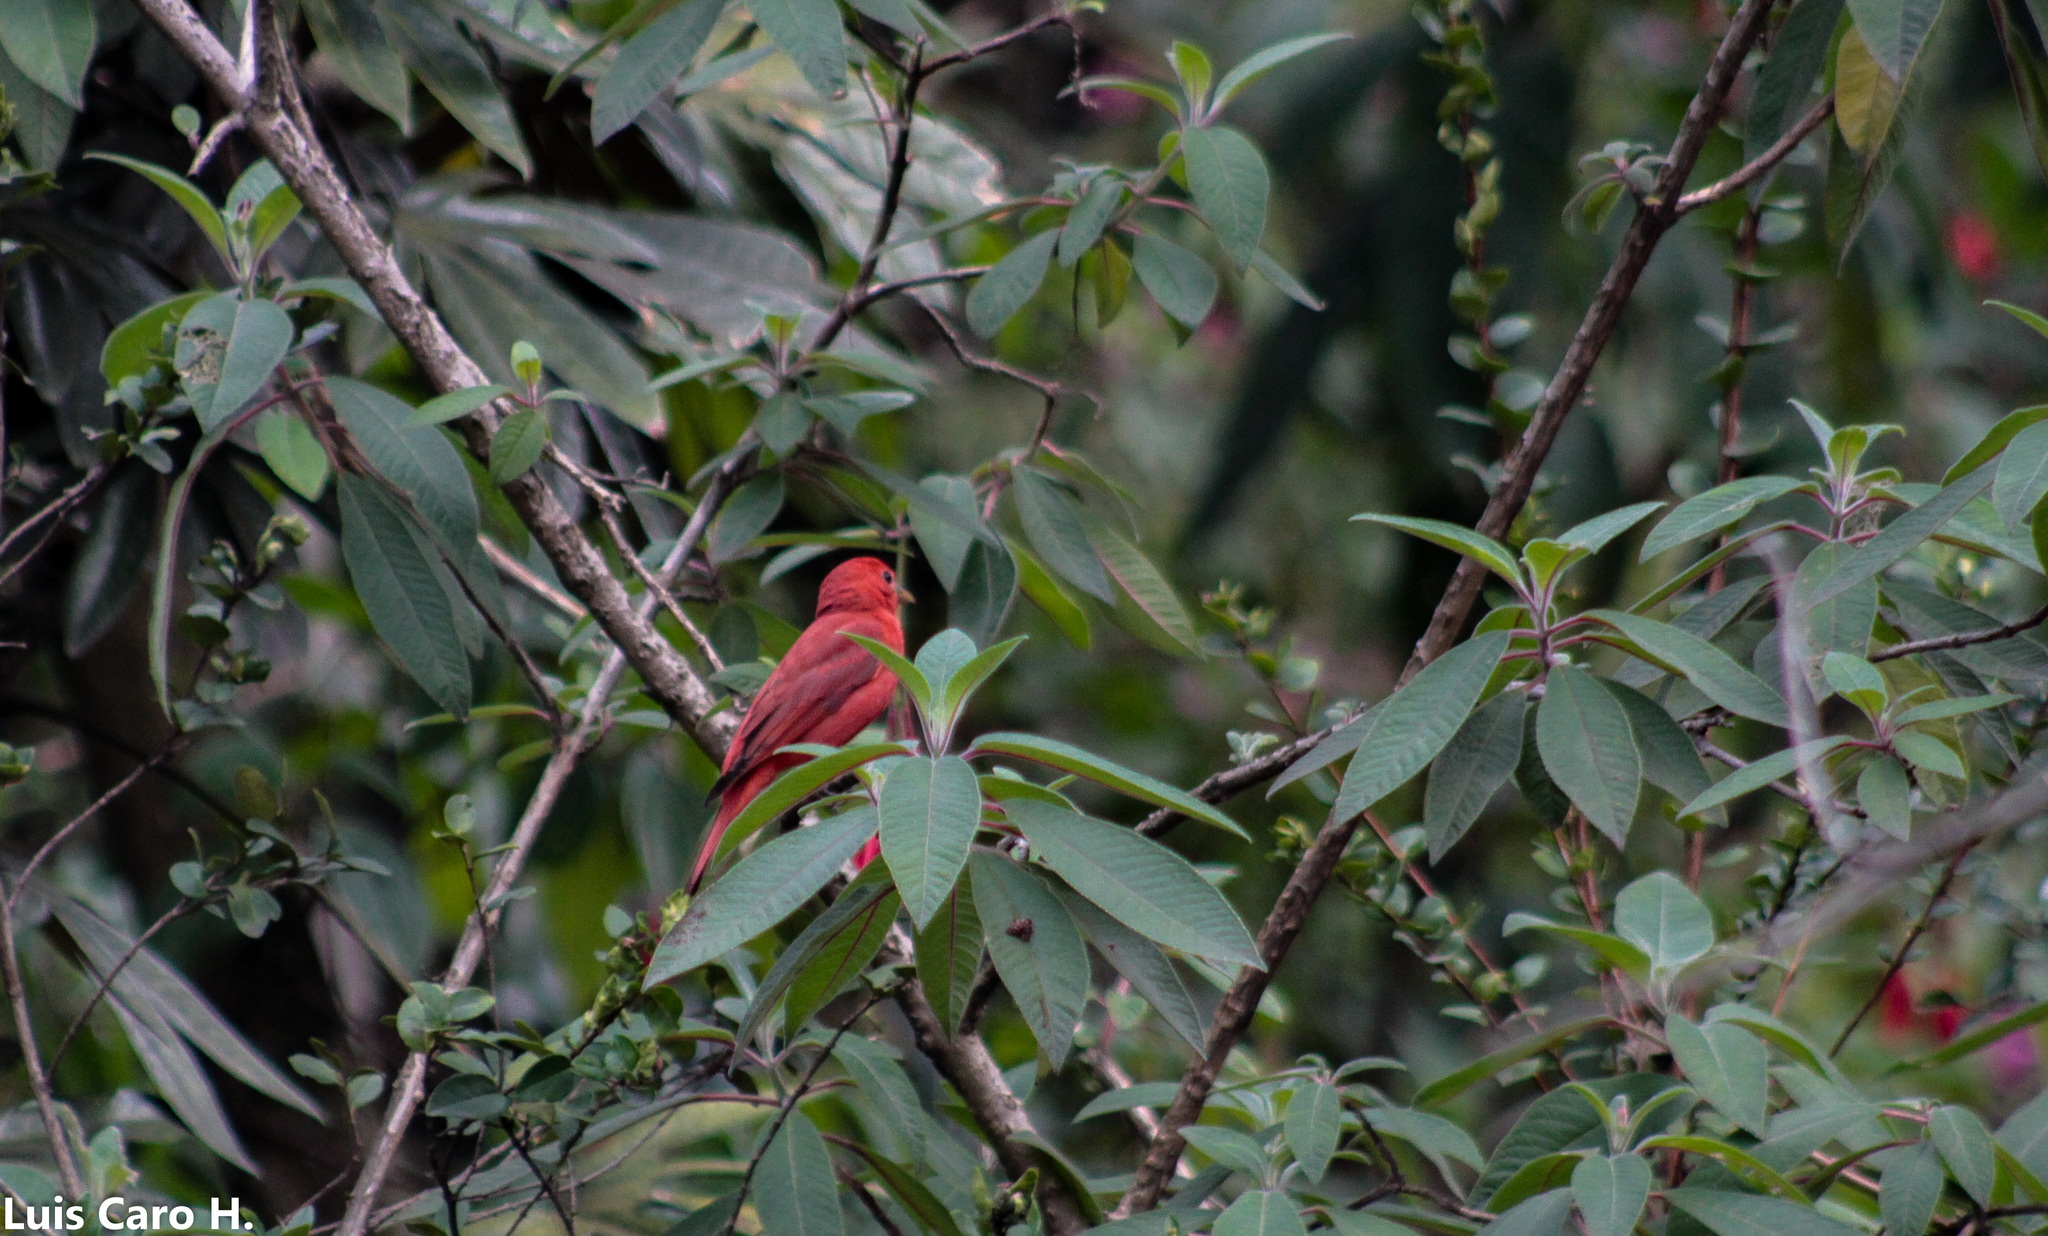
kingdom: Animalia
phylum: Chordata
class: Aves
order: Passeriformes
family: Cardinalidae
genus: Piranga
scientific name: Piranga rubra
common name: Summer tanager
